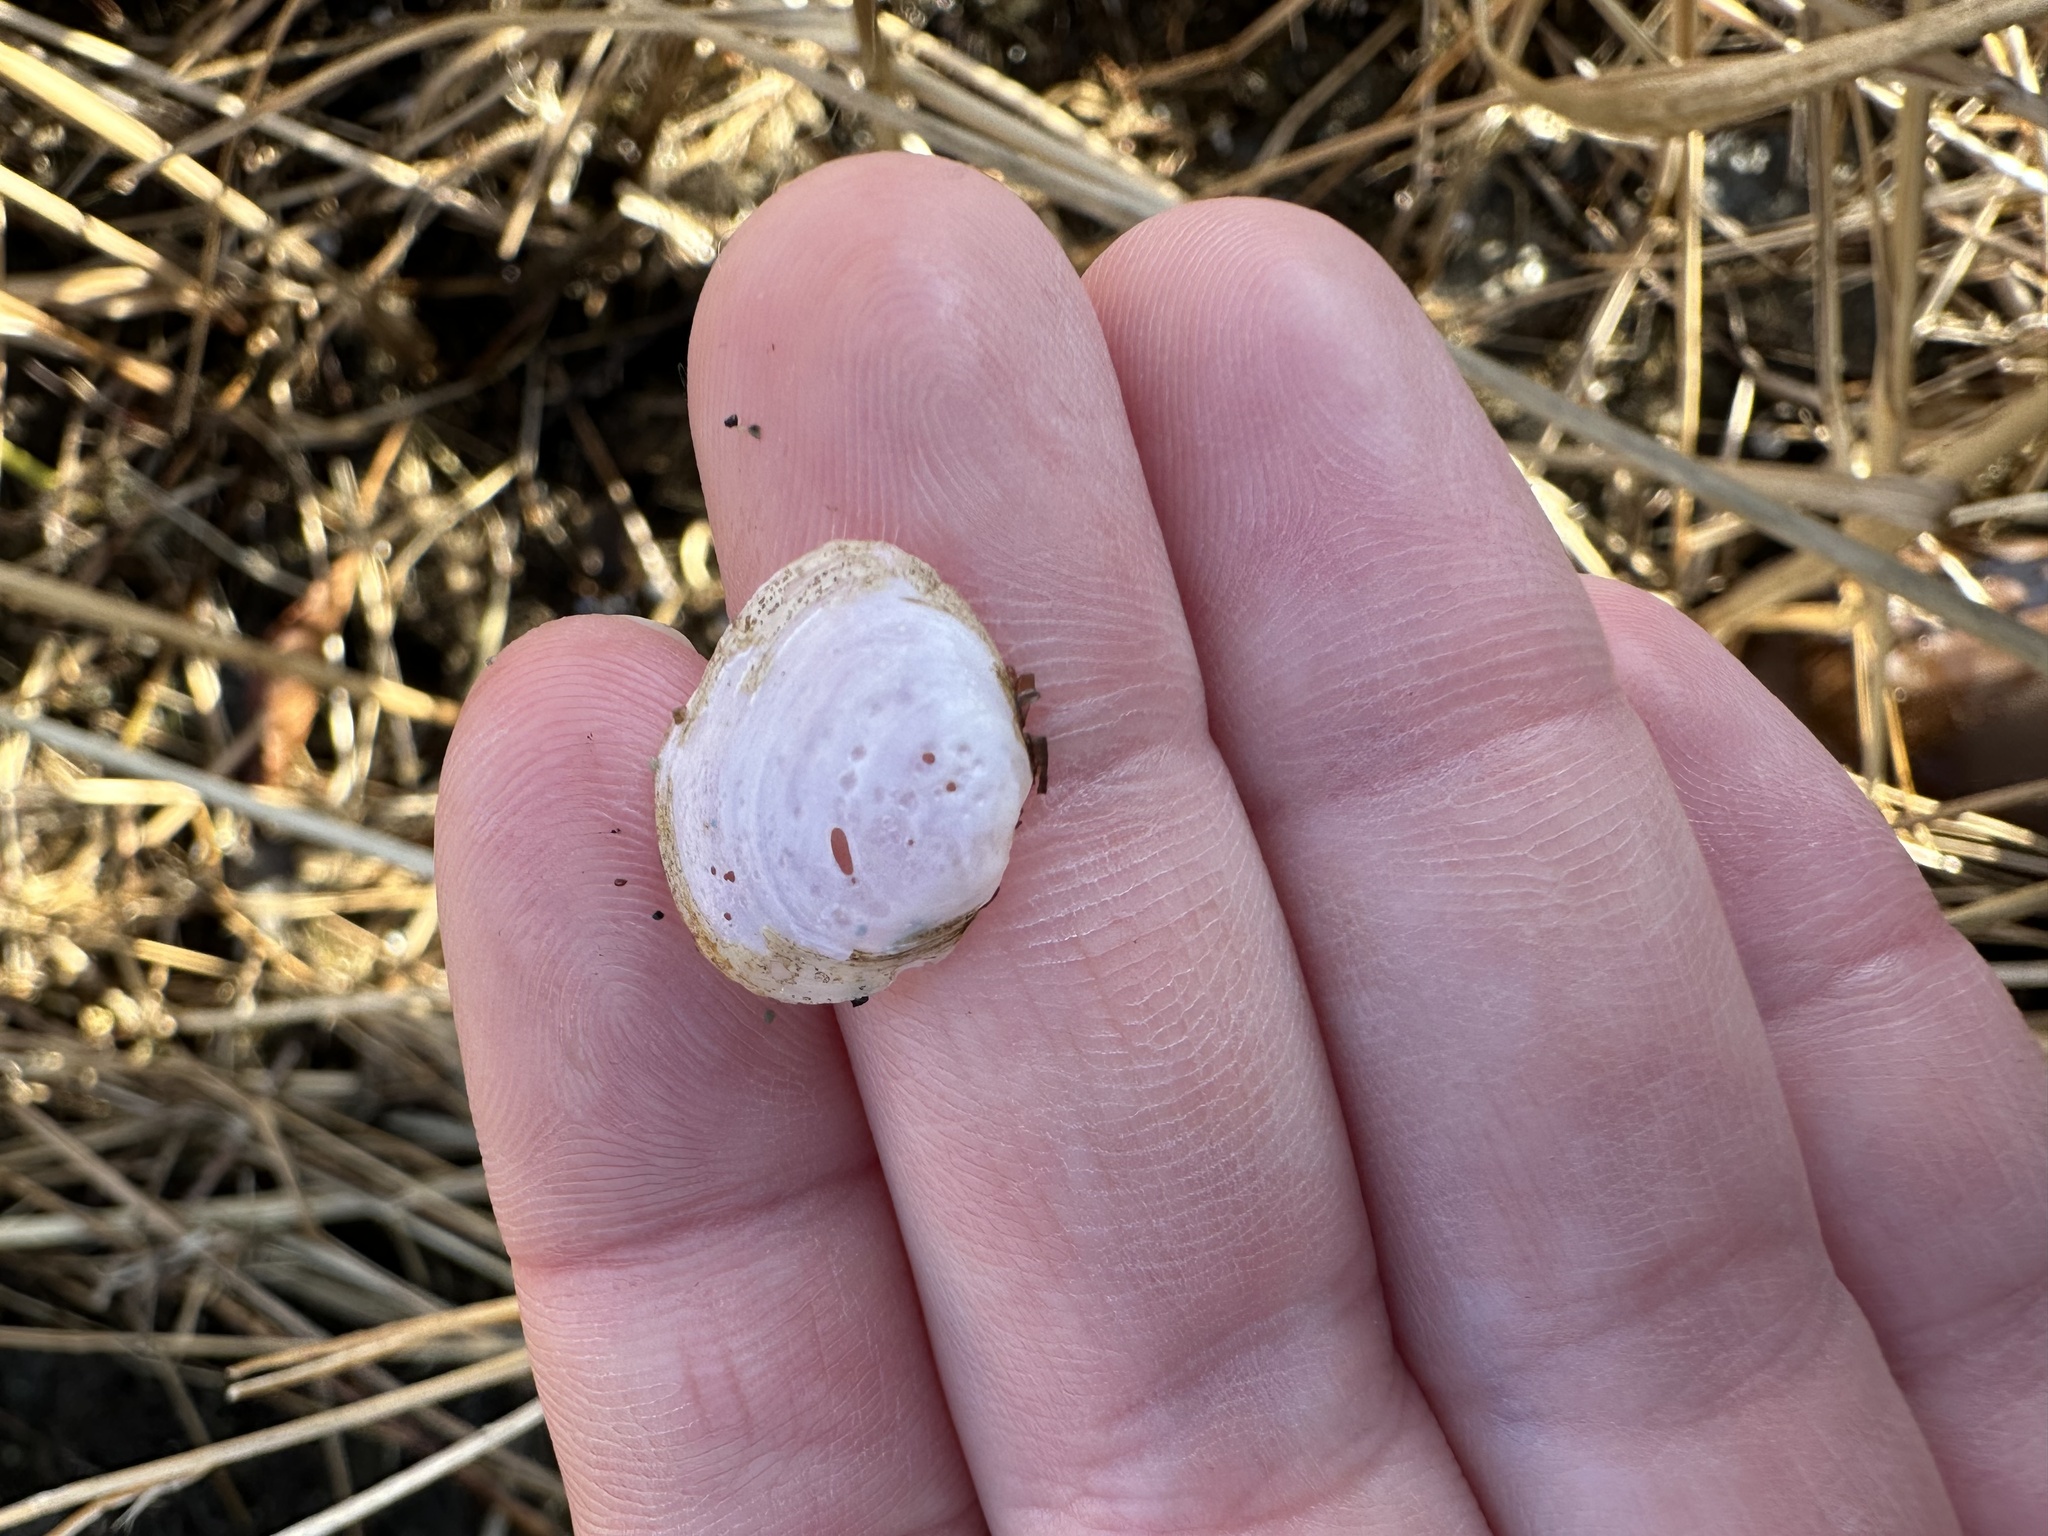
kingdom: Animalia
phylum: Mollusca
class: Bivalvia
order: Cardiida
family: Tellinidae
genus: Macoma
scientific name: Macoma petalum
